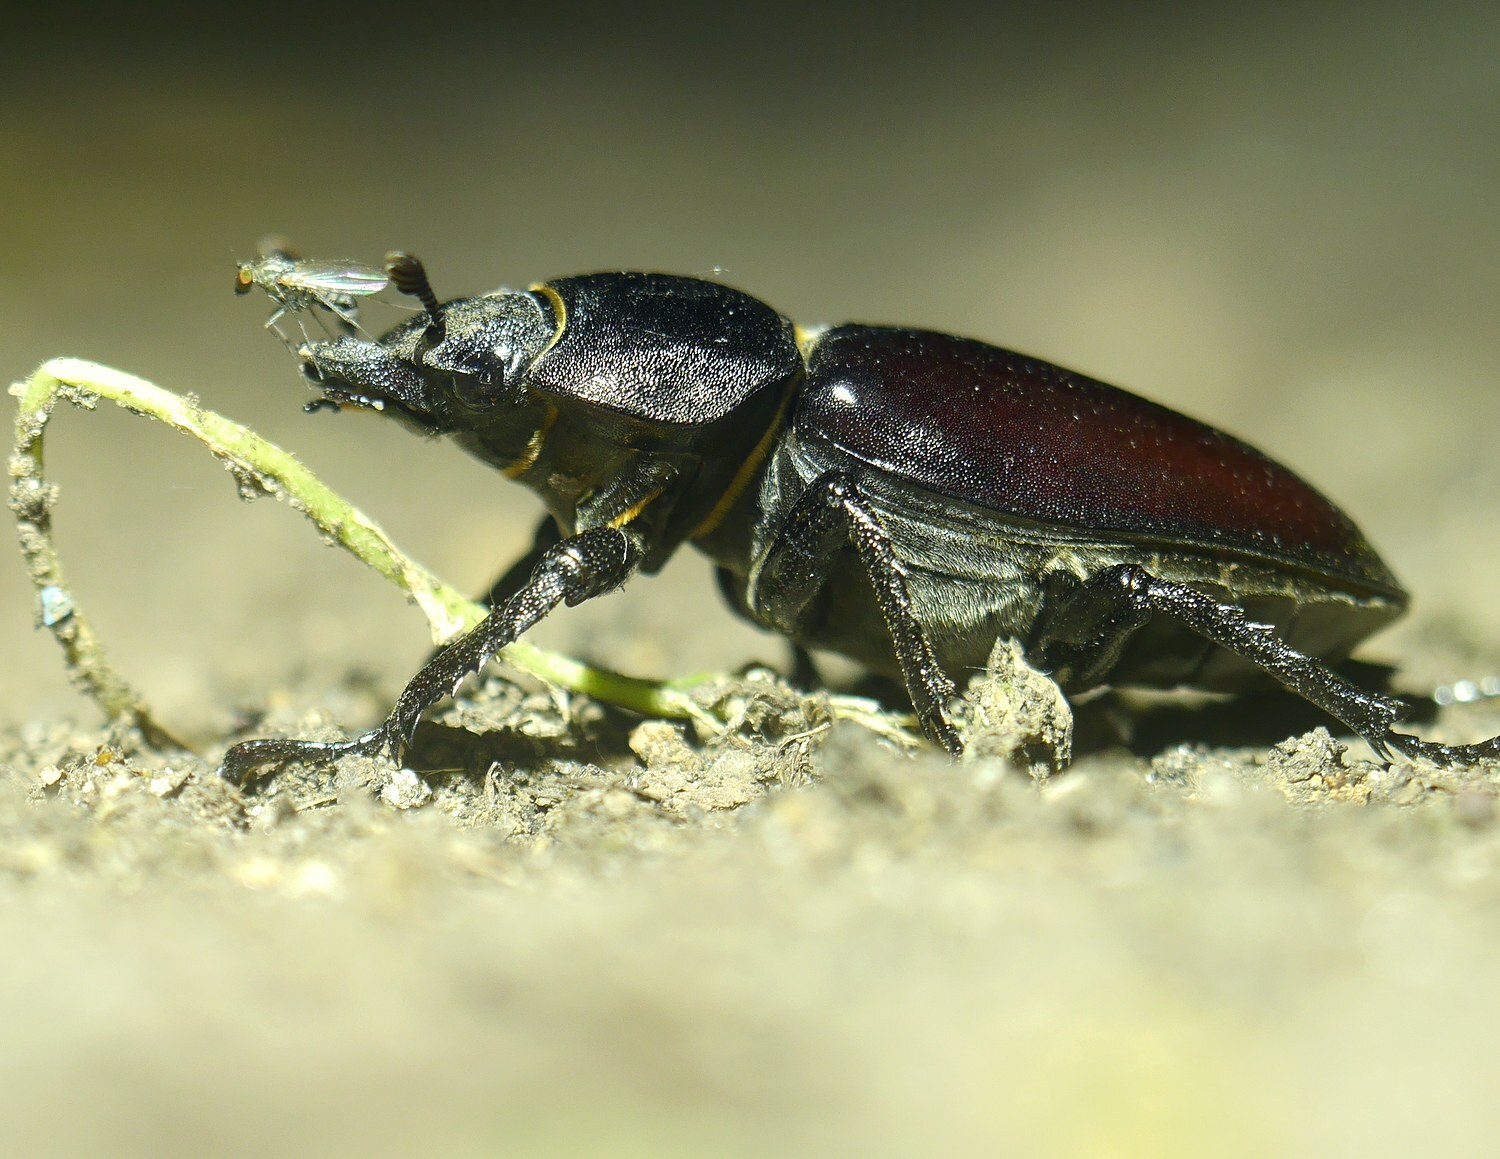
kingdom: Animalia
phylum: Arthropoda
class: Insecta
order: Coleoptera
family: Lucanidae
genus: Lucanus
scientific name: Lucanus cervus
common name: Stag beetle
